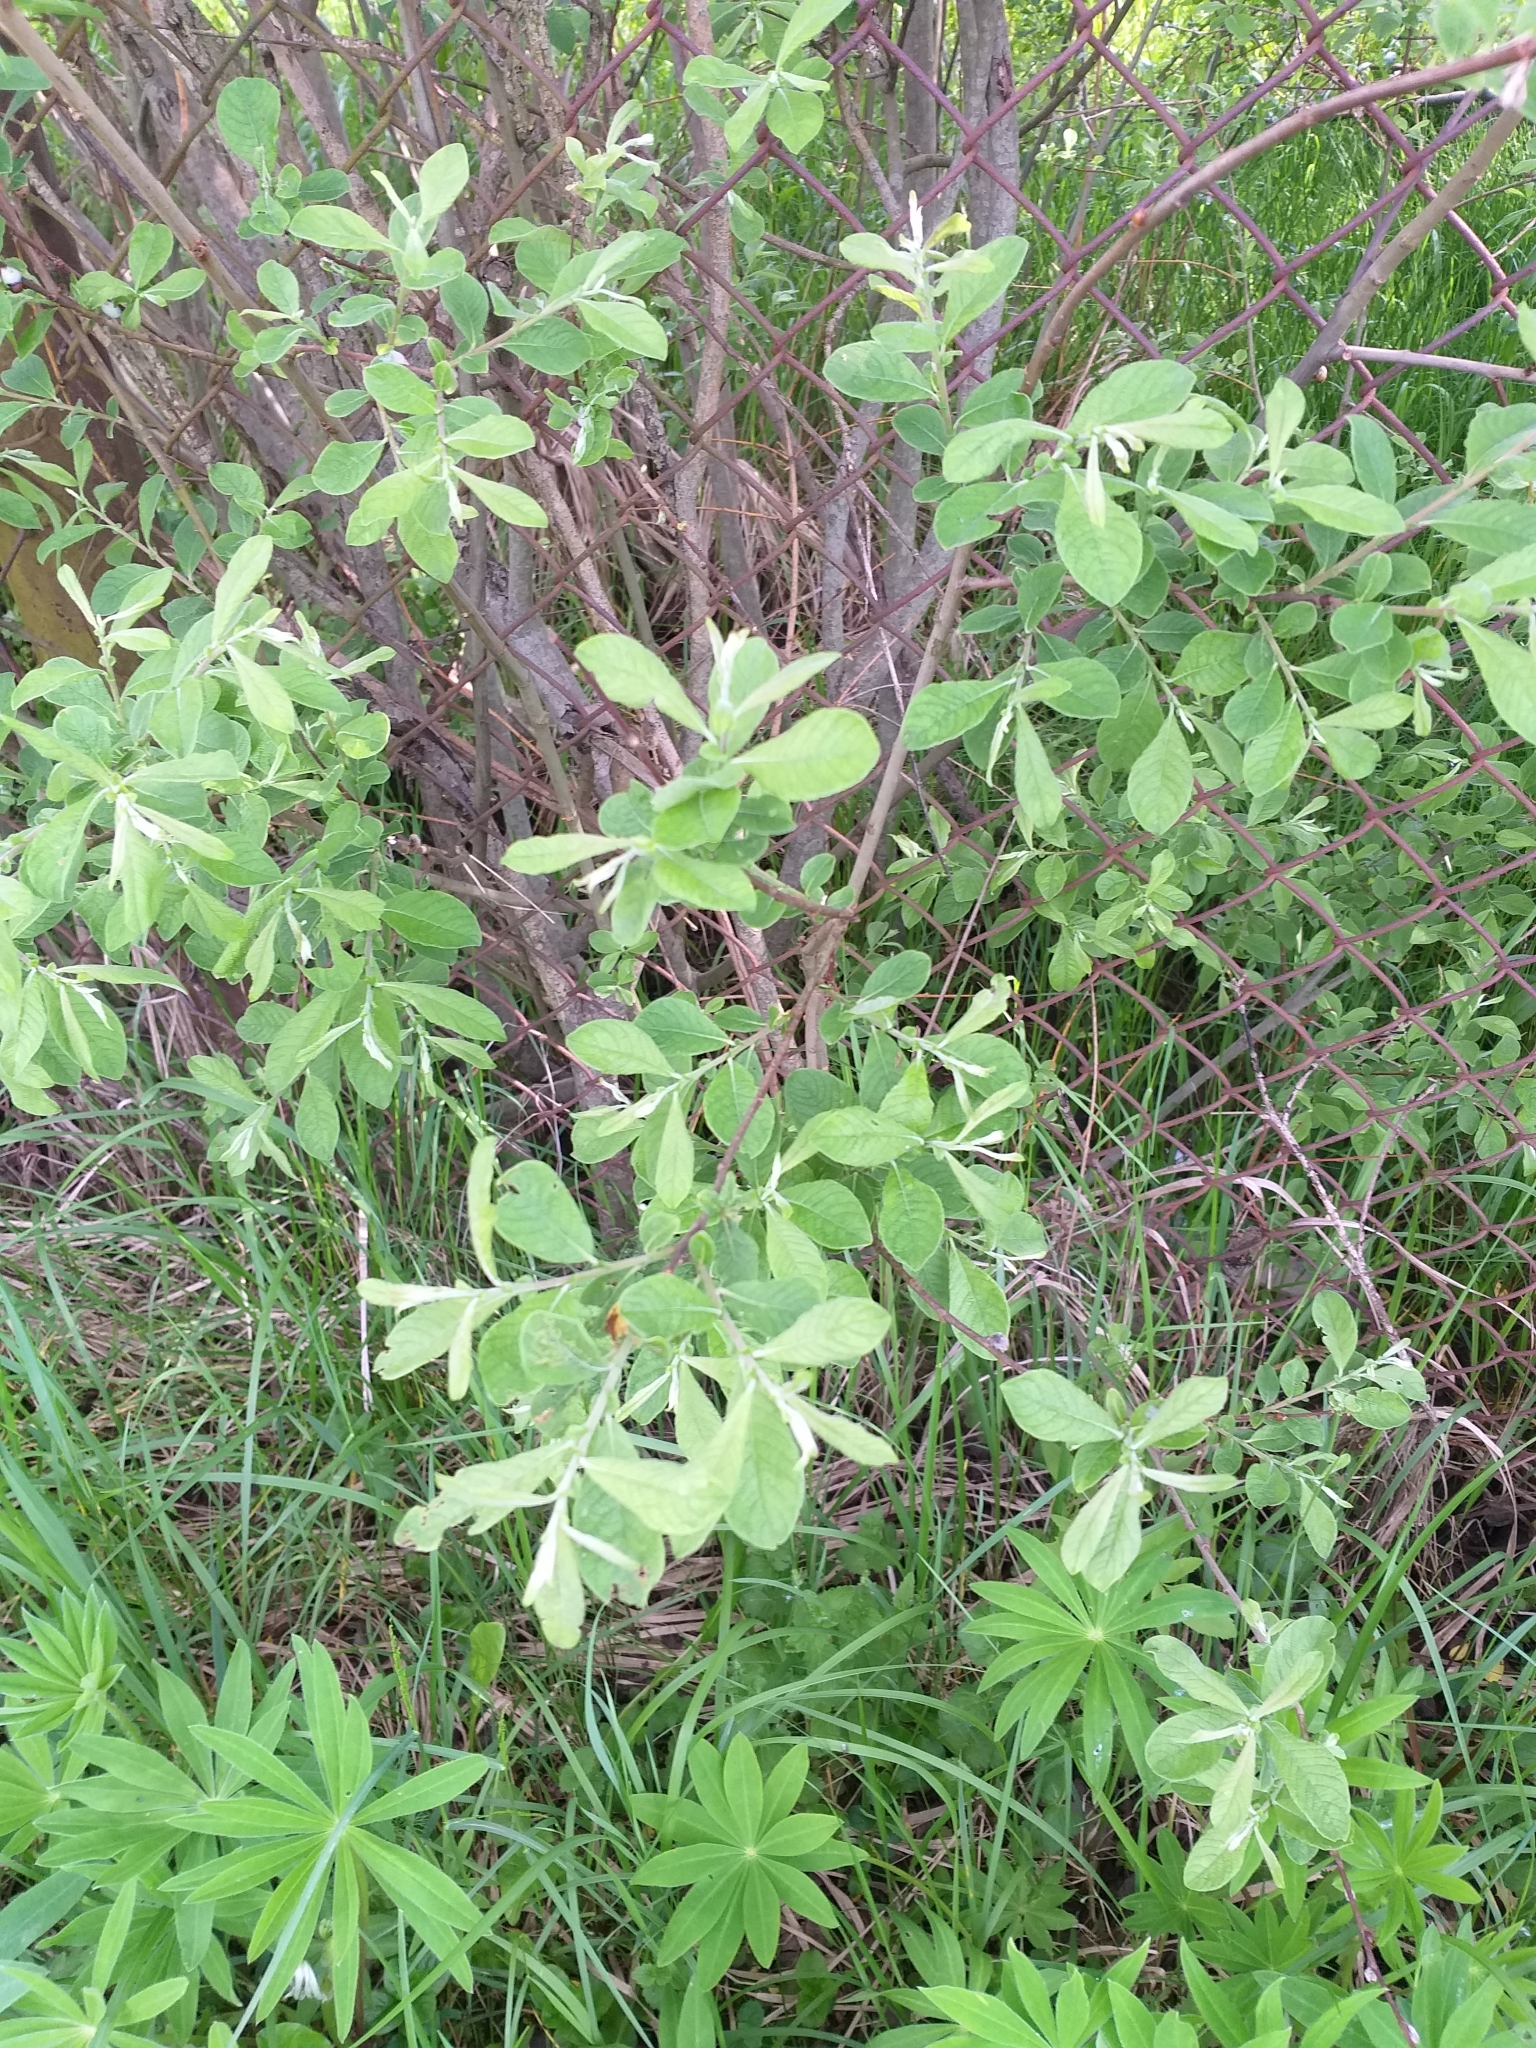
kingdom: Plantae
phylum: Tracheophyta
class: Magnoliopsida
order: Malpighiales
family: Salicaceae
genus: Salix
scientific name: Salix aurita
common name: Eared willow
